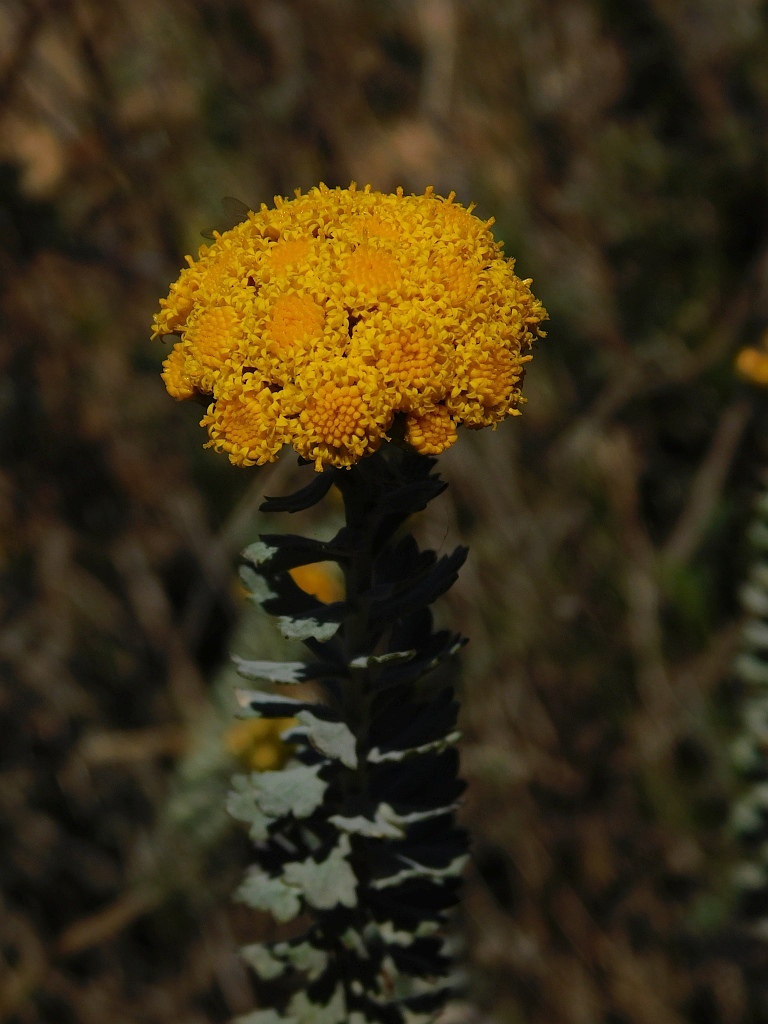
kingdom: Plantae
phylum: Tracheophyta
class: Magnoliopsida
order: Asterales
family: Asteraceae
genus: Athanasia
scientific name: Athanasia trifurcata
